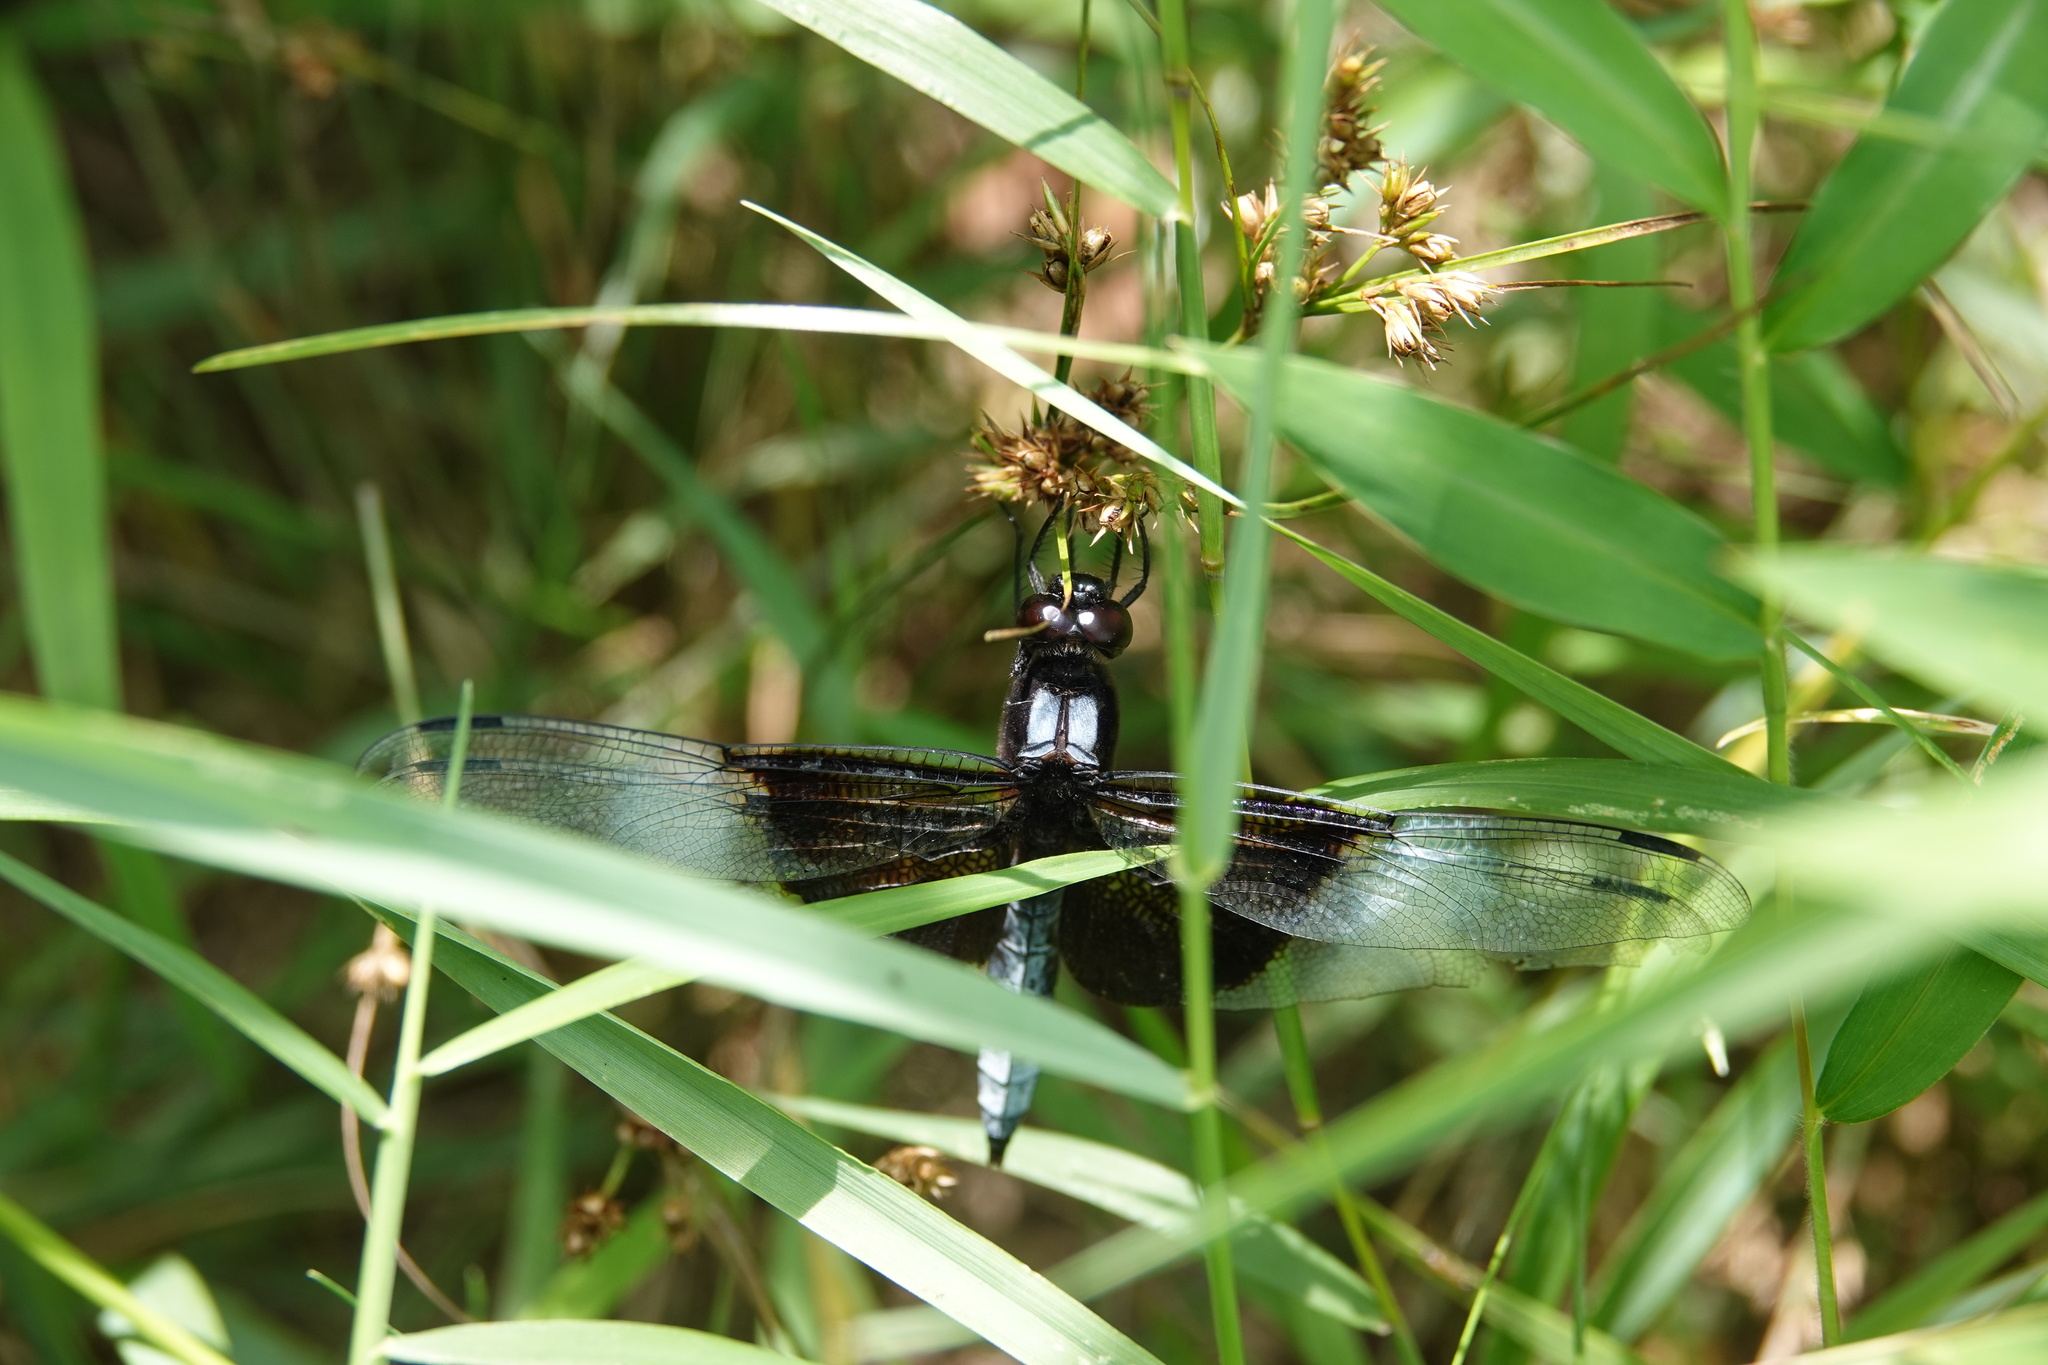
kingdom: Animalia
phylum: Arthropoda
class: Insecta
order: Odonata
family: Libellulidae
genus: Libellula
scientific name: Libellula luctuosa
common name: Widow skimmer
